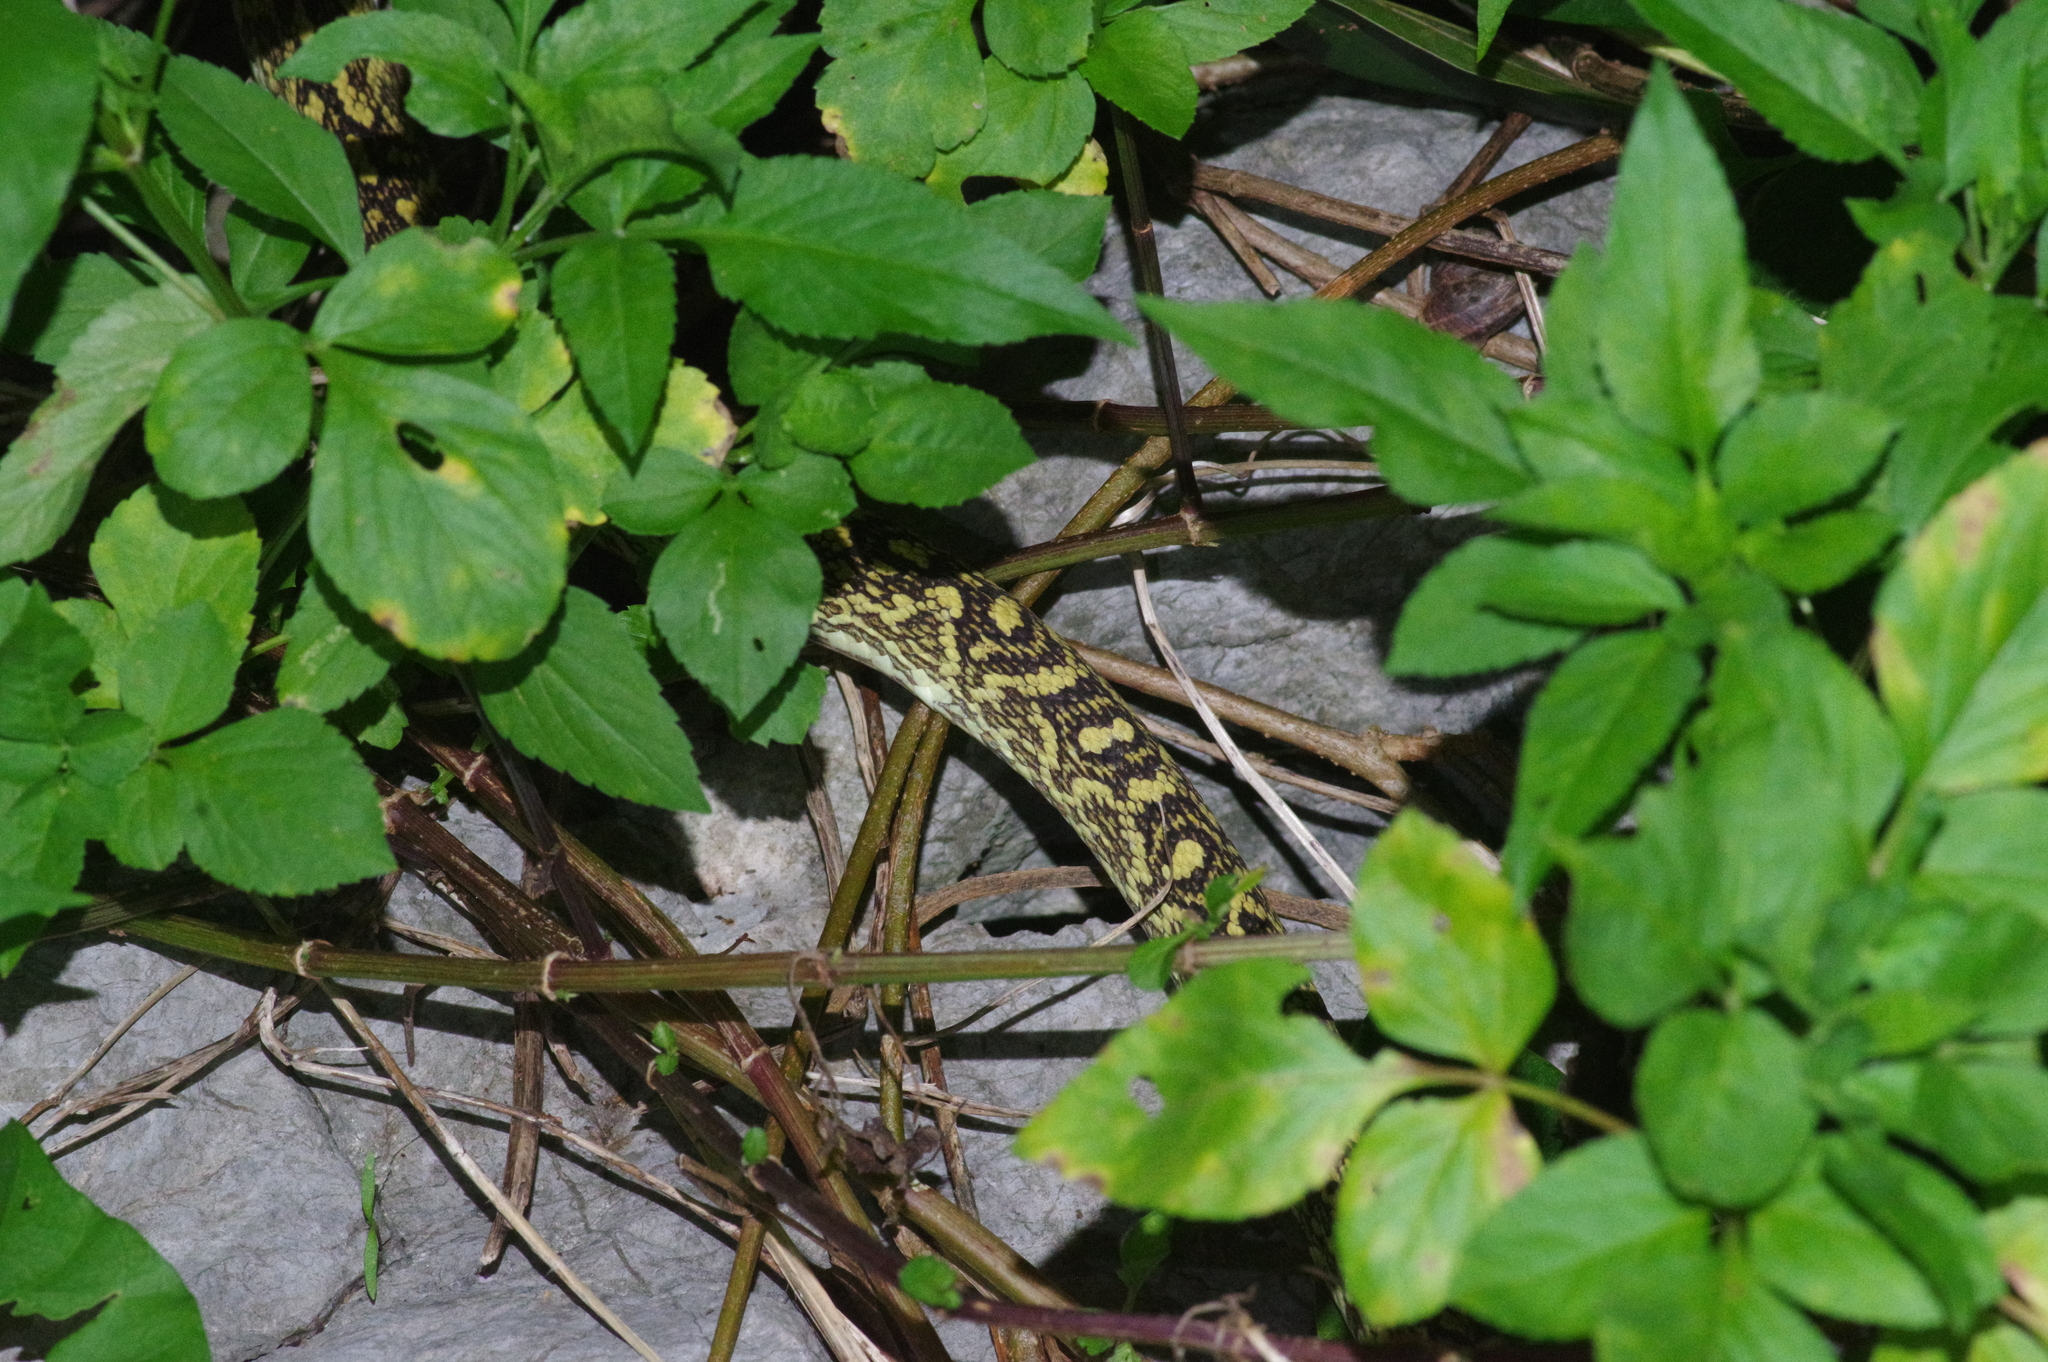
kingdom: Animalia
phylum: Chordata
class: Squamata
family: Viperidae
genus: Protobothrops
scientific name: Protobothrops flavoviridis
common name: Habu
